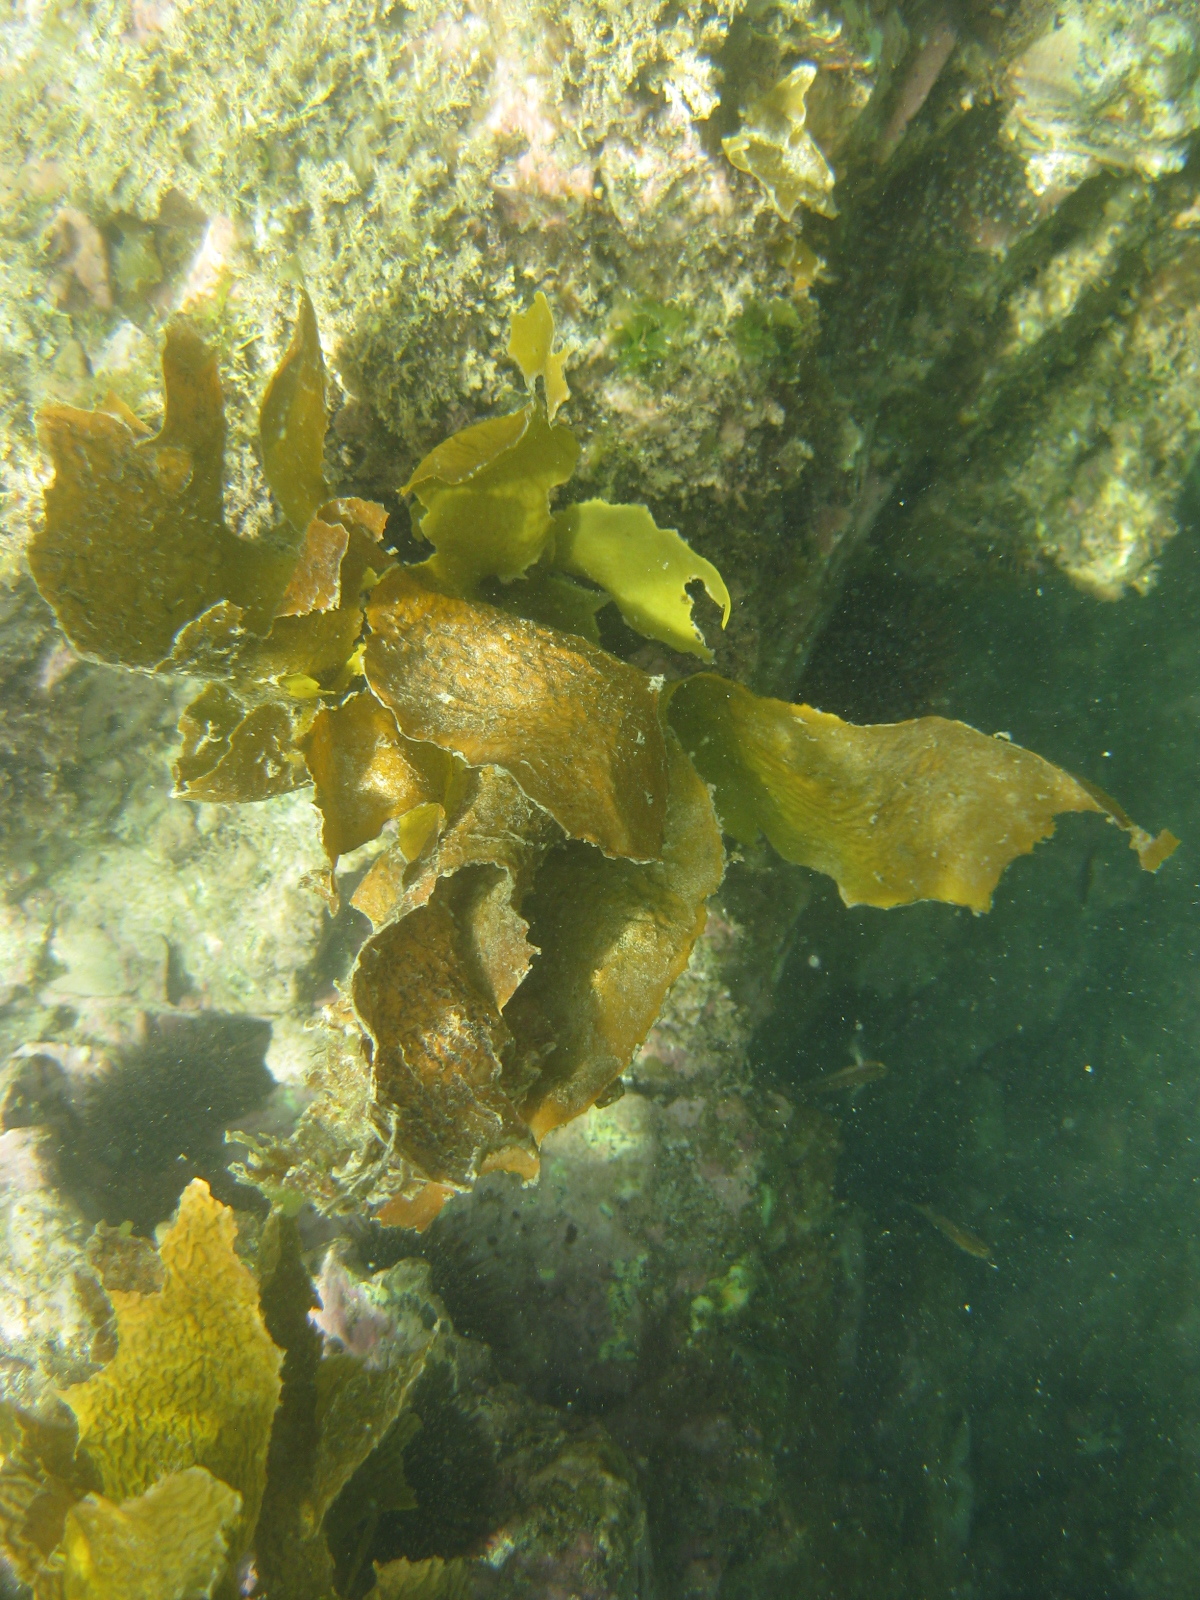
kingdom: Chromista
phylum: Ochrophyta
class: Phaeophyceae
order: Laminariales
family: Lessoniaceae
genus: Ecklonia
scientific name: Ecklonia radiata
